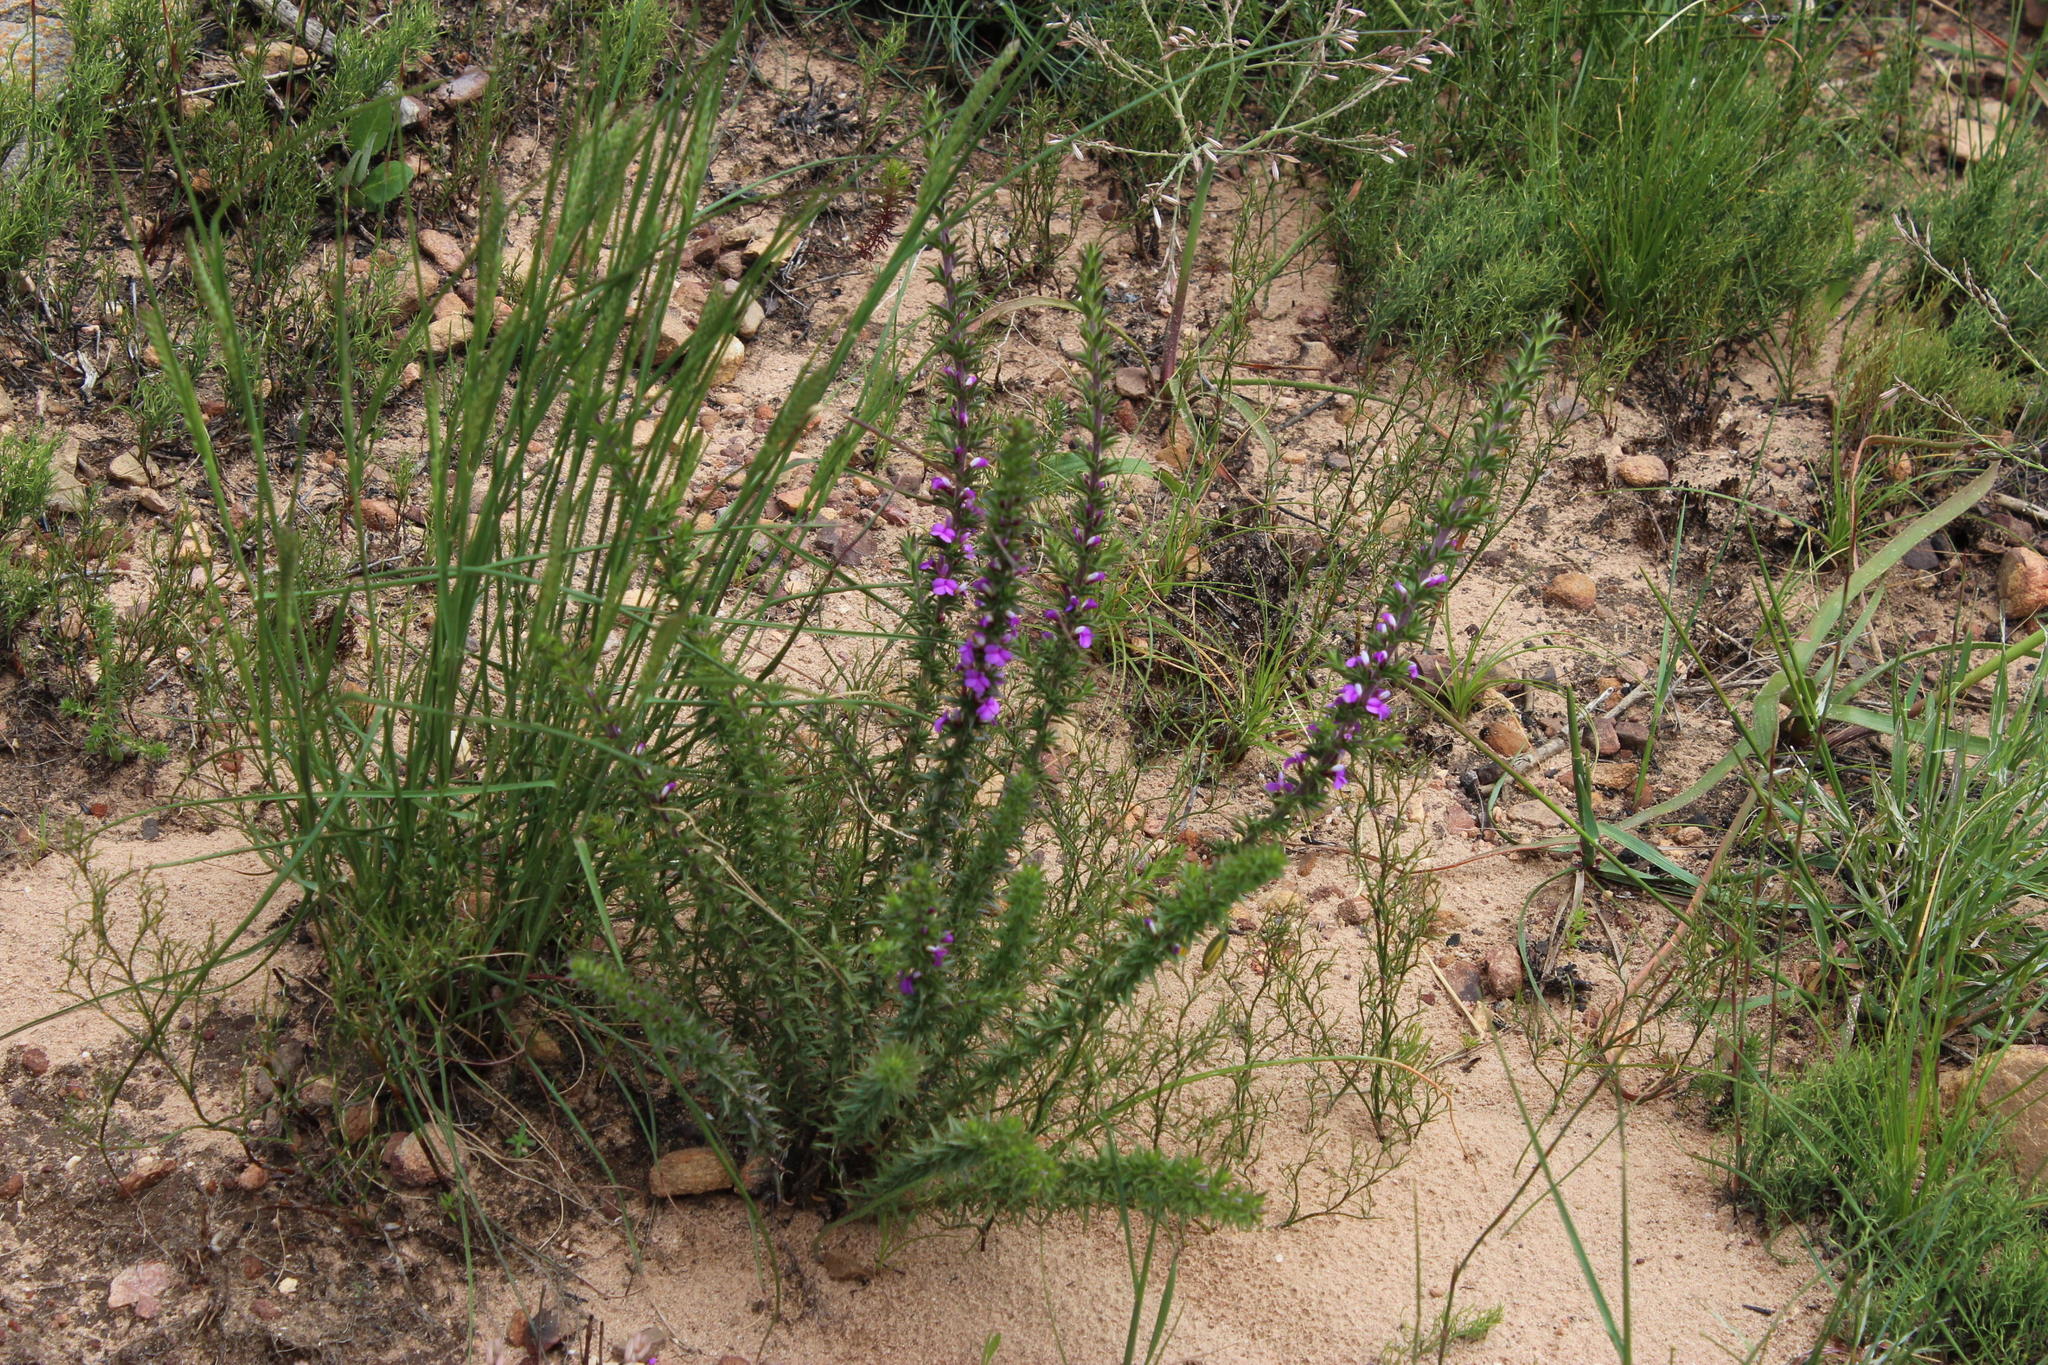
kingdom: Plantae
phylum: Tracheophyta
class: Magnoliopsida
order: Fabales
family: Polygalaceae
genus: Muraltia
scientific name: Muraltia heisteria
